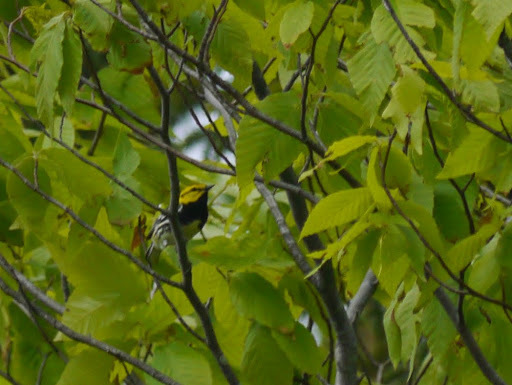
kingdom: Animalia
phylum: Chordata
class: Aves
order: Passeriformes
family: Parulidae
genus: Setophaga
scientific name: Setophaga virens
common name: Black-throated green warbler
